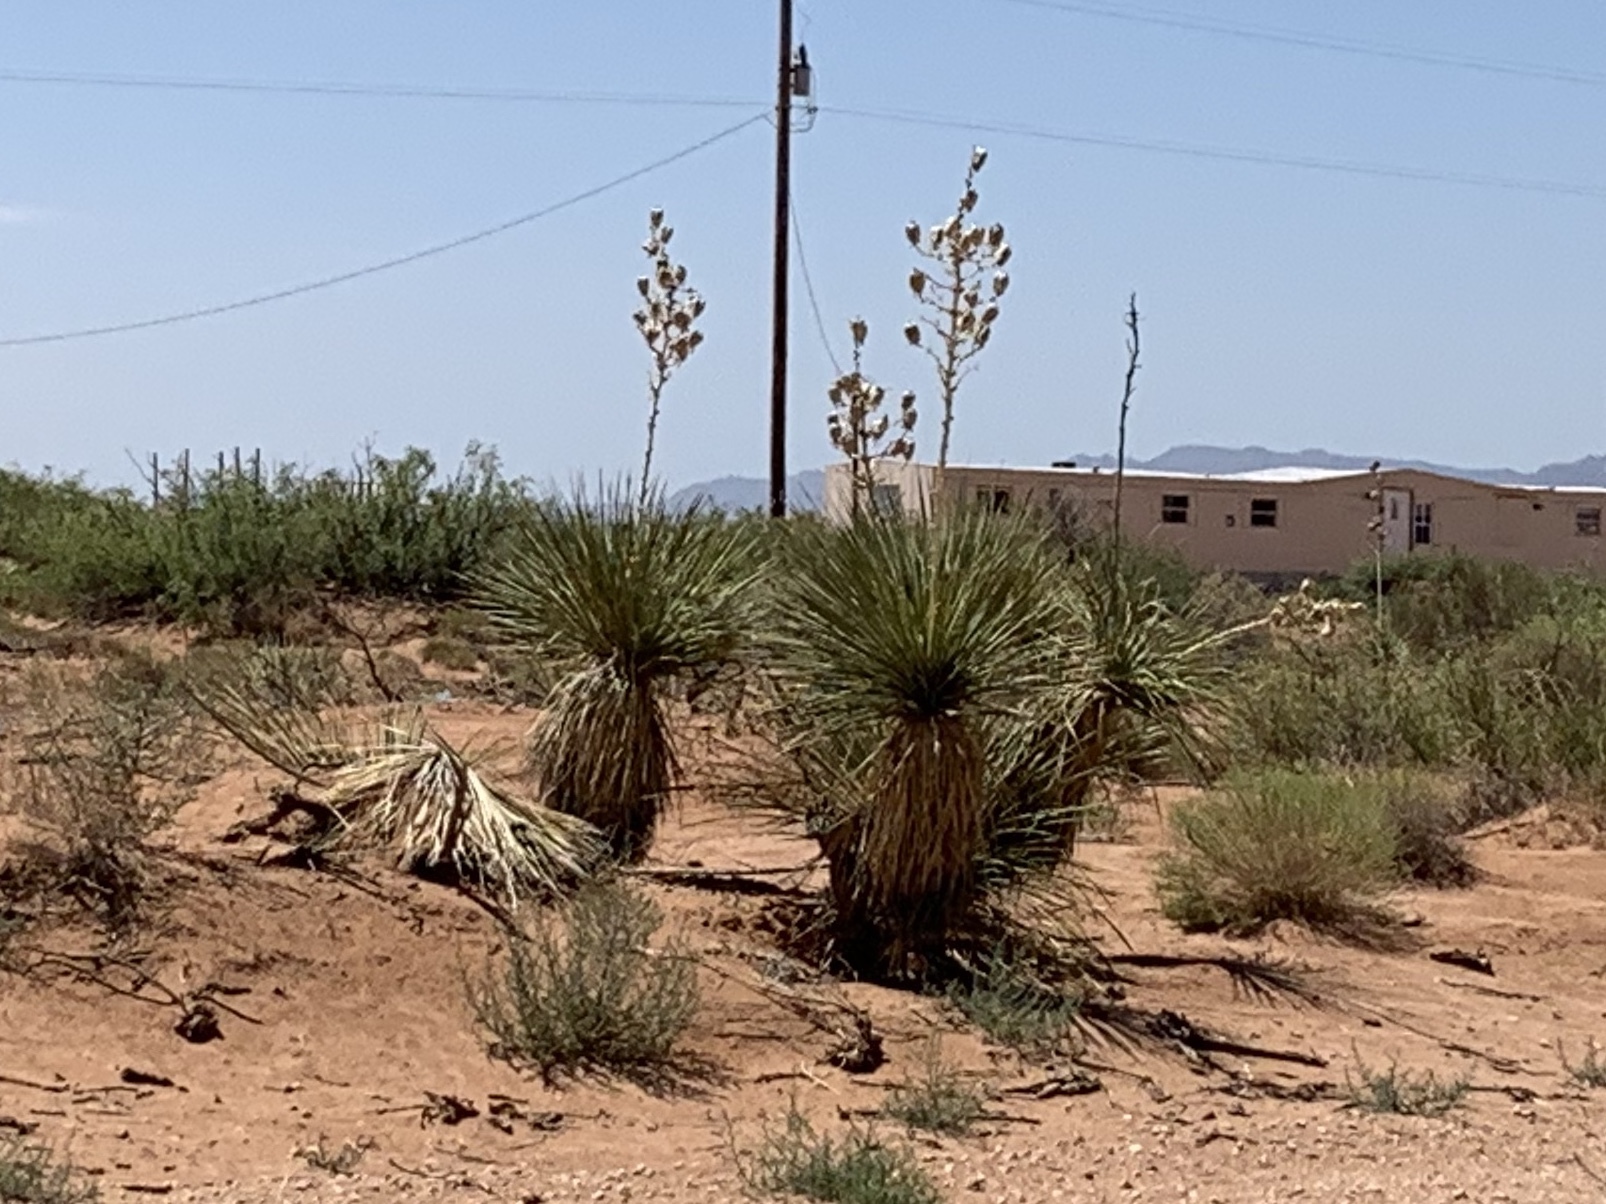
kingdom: Plantae
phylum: Tracheophyta
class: Liliopsida
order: Asparagales
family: Asparagaceae
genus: Yucca
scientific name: Yucca elata
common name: Palmella
